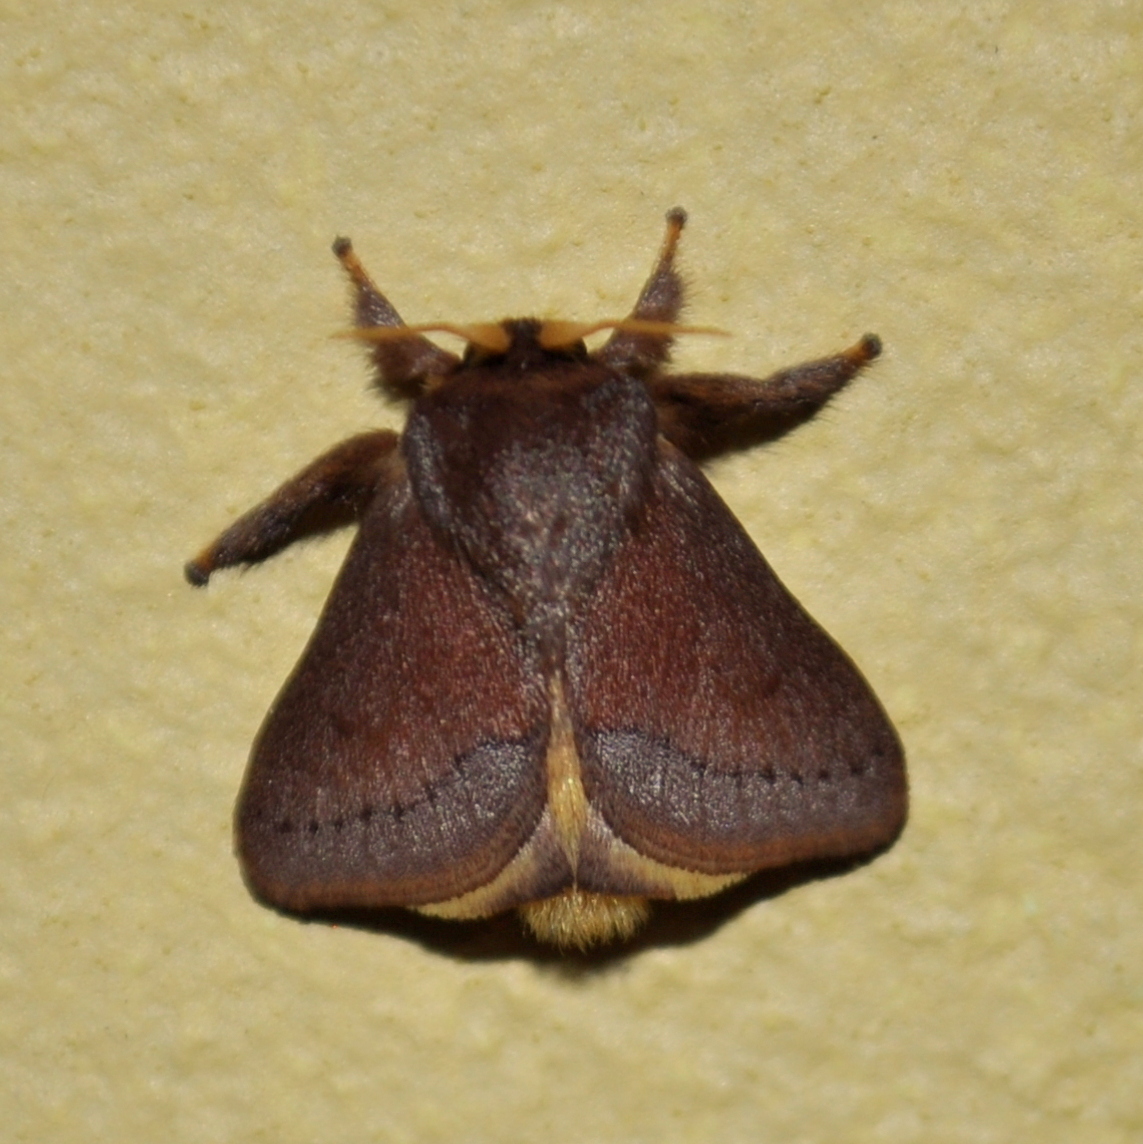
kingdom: Animalia
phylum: Arthropoda
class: Insecta
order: Lepidoptera
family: Limacodidae
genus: Talima
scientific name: Talima
